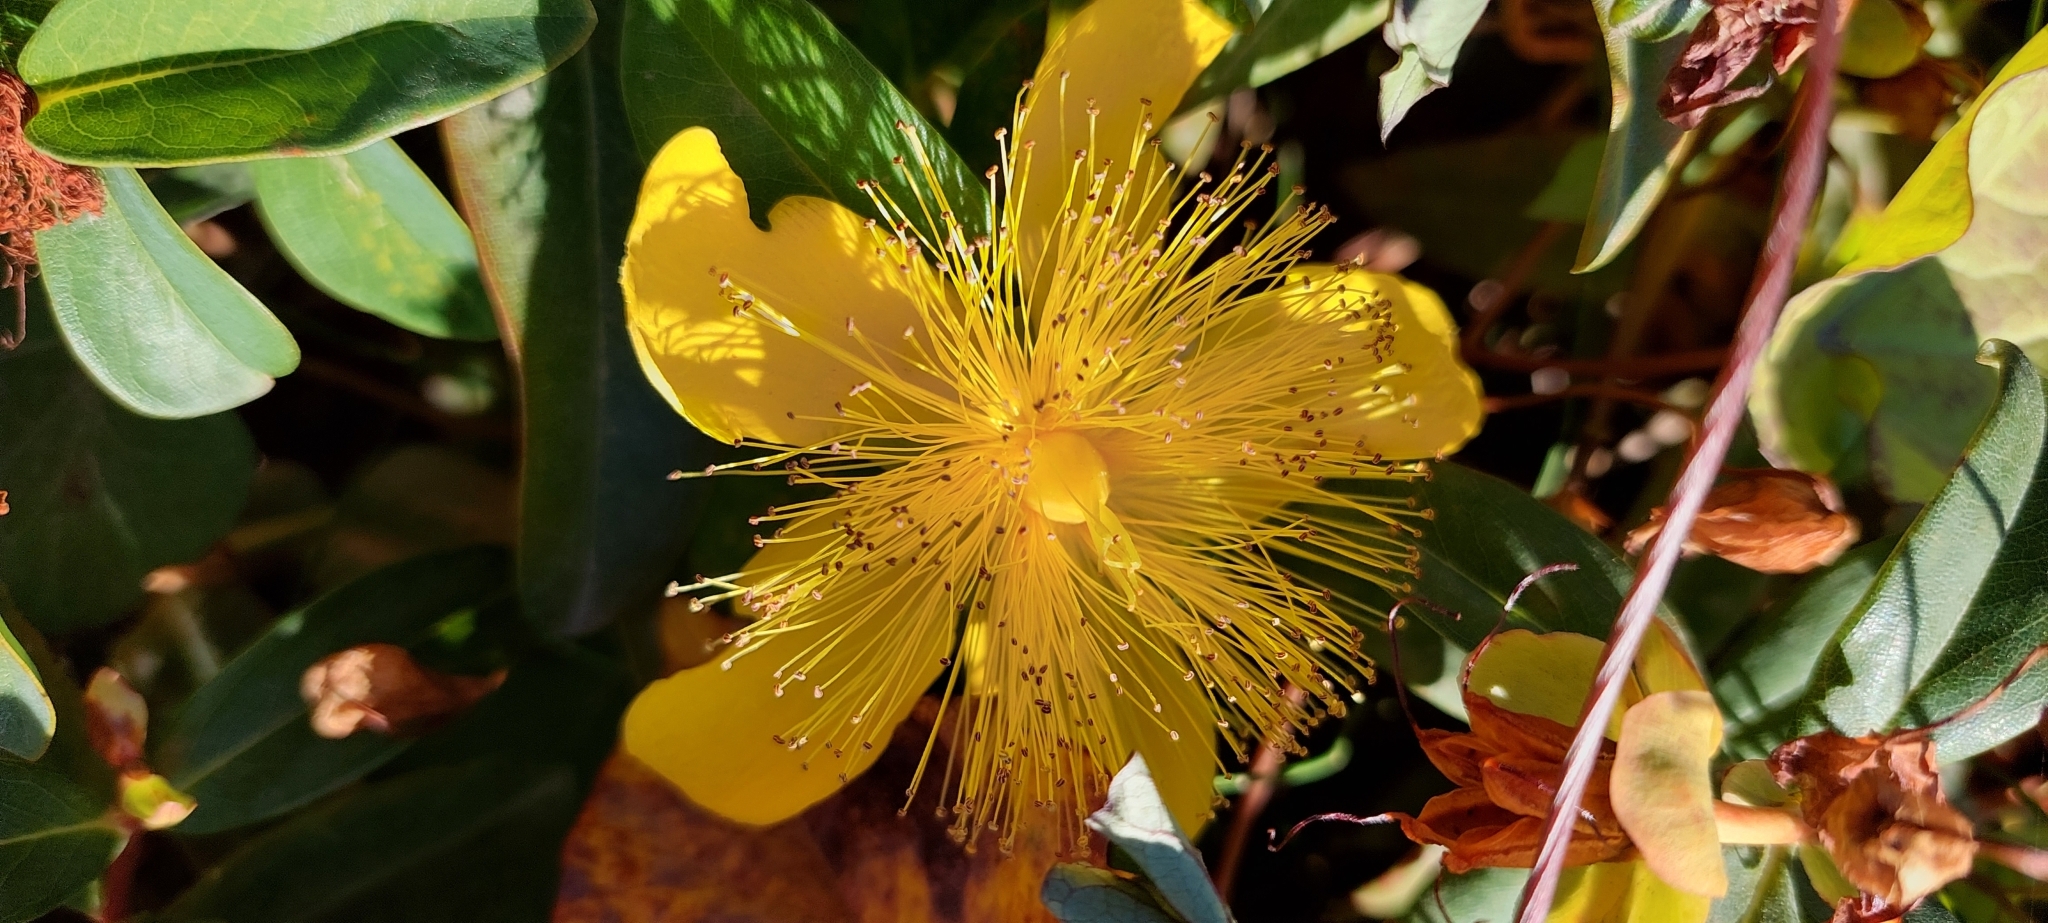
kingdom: Plantae
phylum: Tracheophyta
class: Magnoliopsida
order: Malpighiales
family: Hypericaceae
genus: Hypericum
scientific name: Hypericum calycinum
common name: Rose-of-sharon
